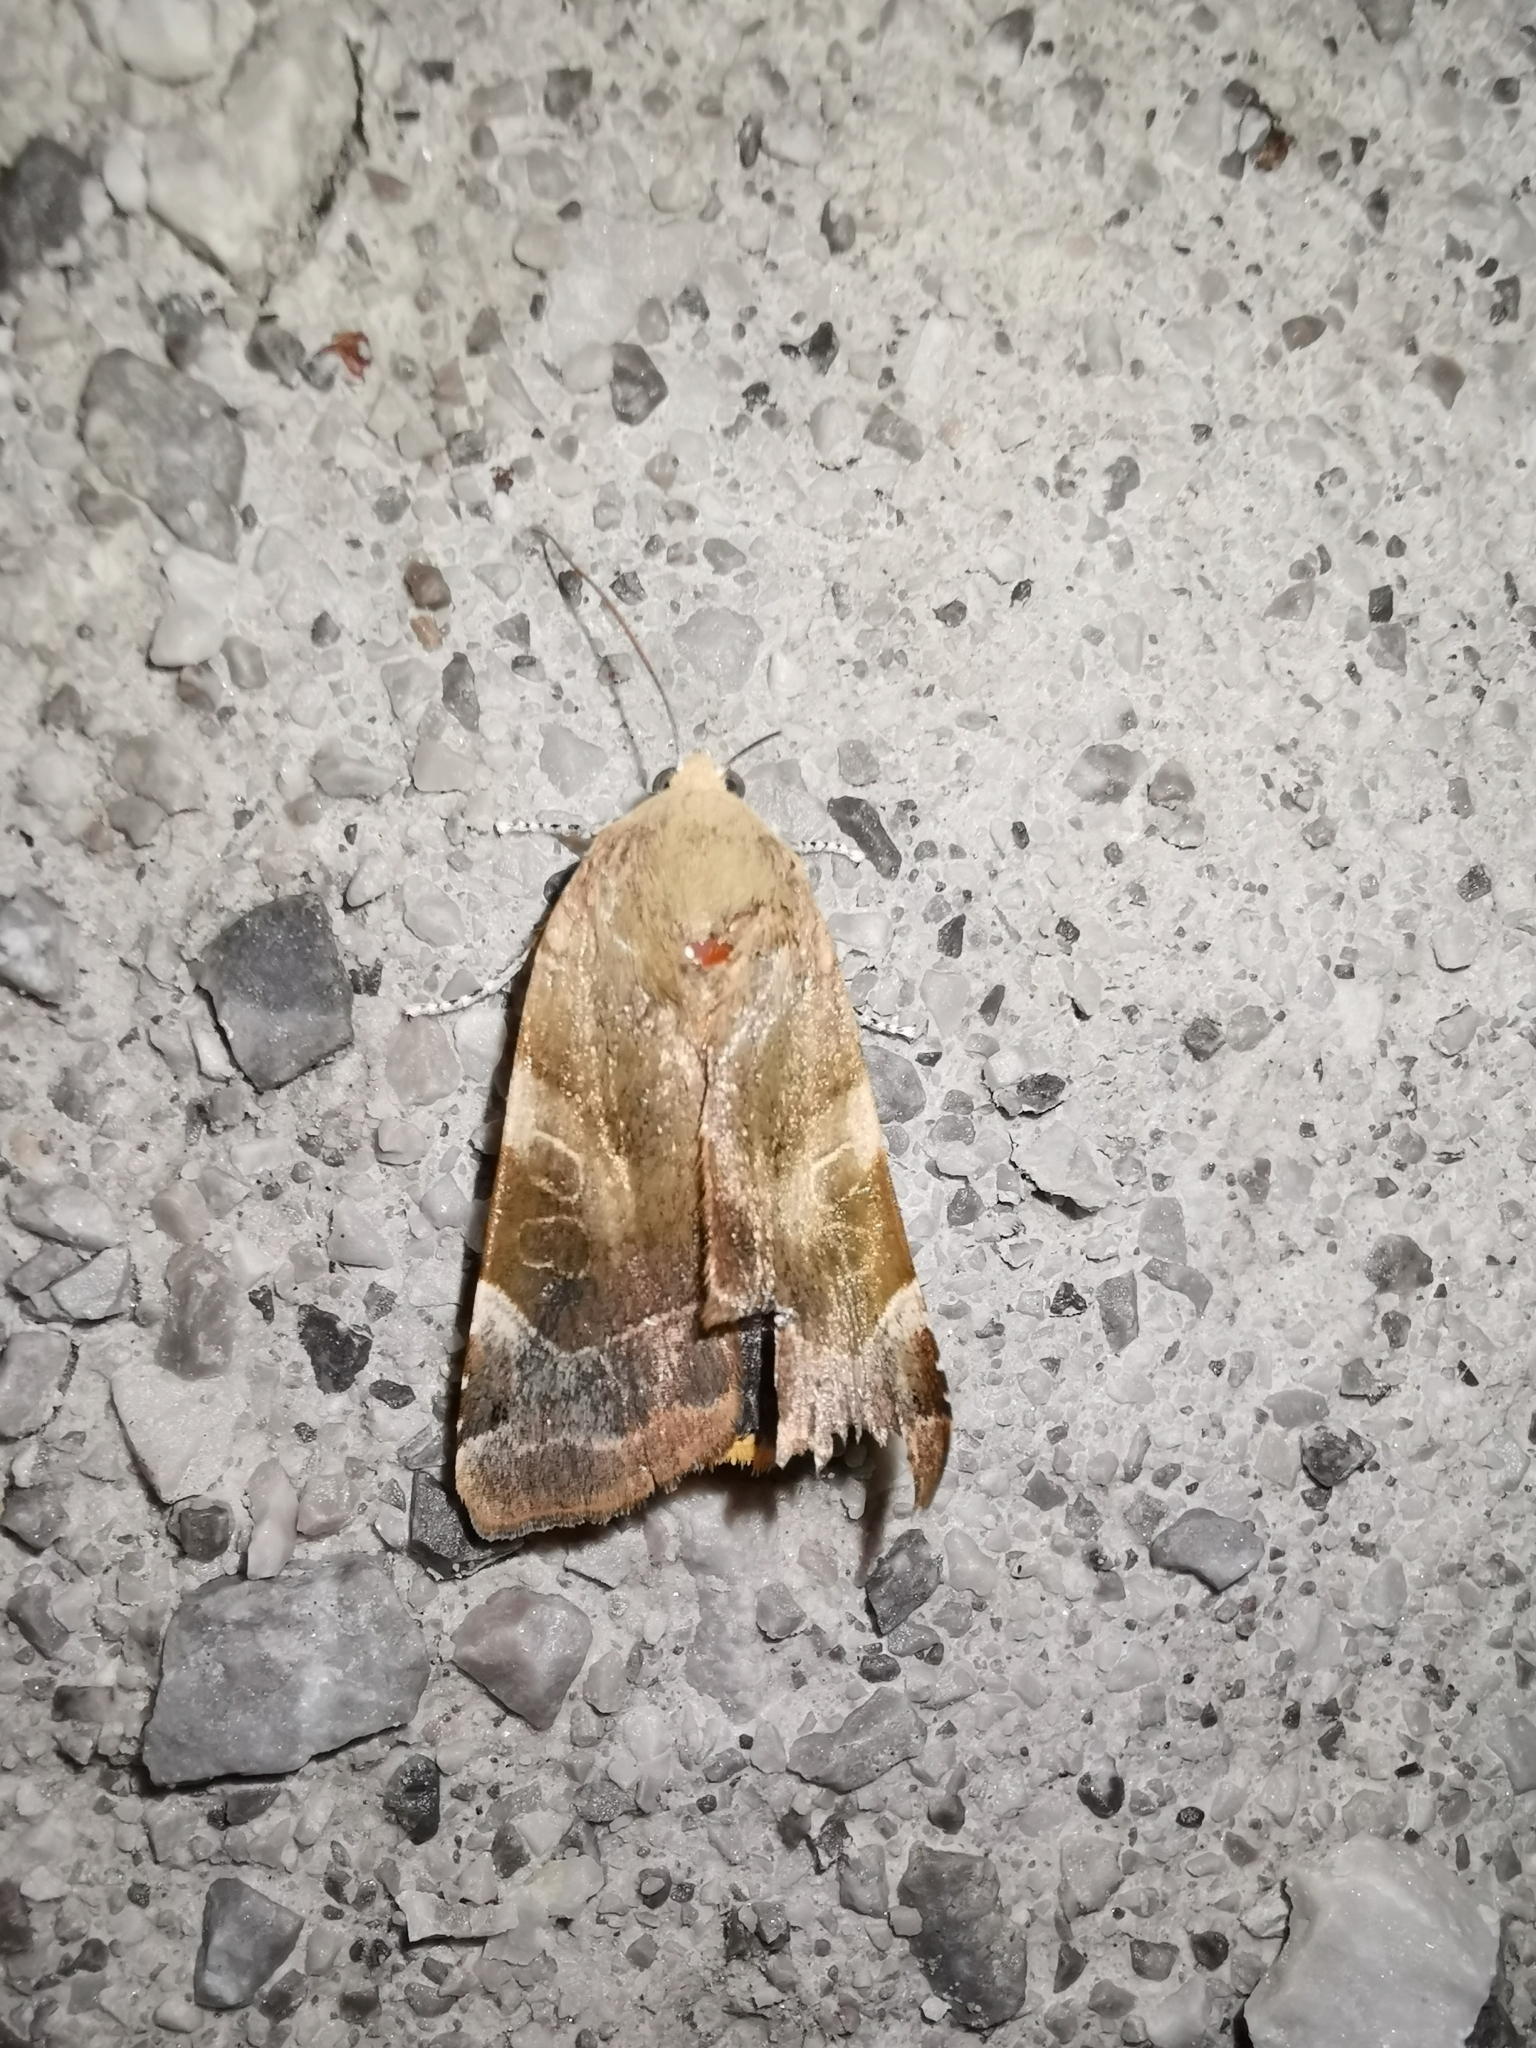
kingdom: Animalia
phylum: Arthropoda
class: Insecta
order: Lepidoptera
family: Noctuidae
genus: Noctua
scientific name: Noctua fimbriata
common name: Broad-bordered yellow underwing
